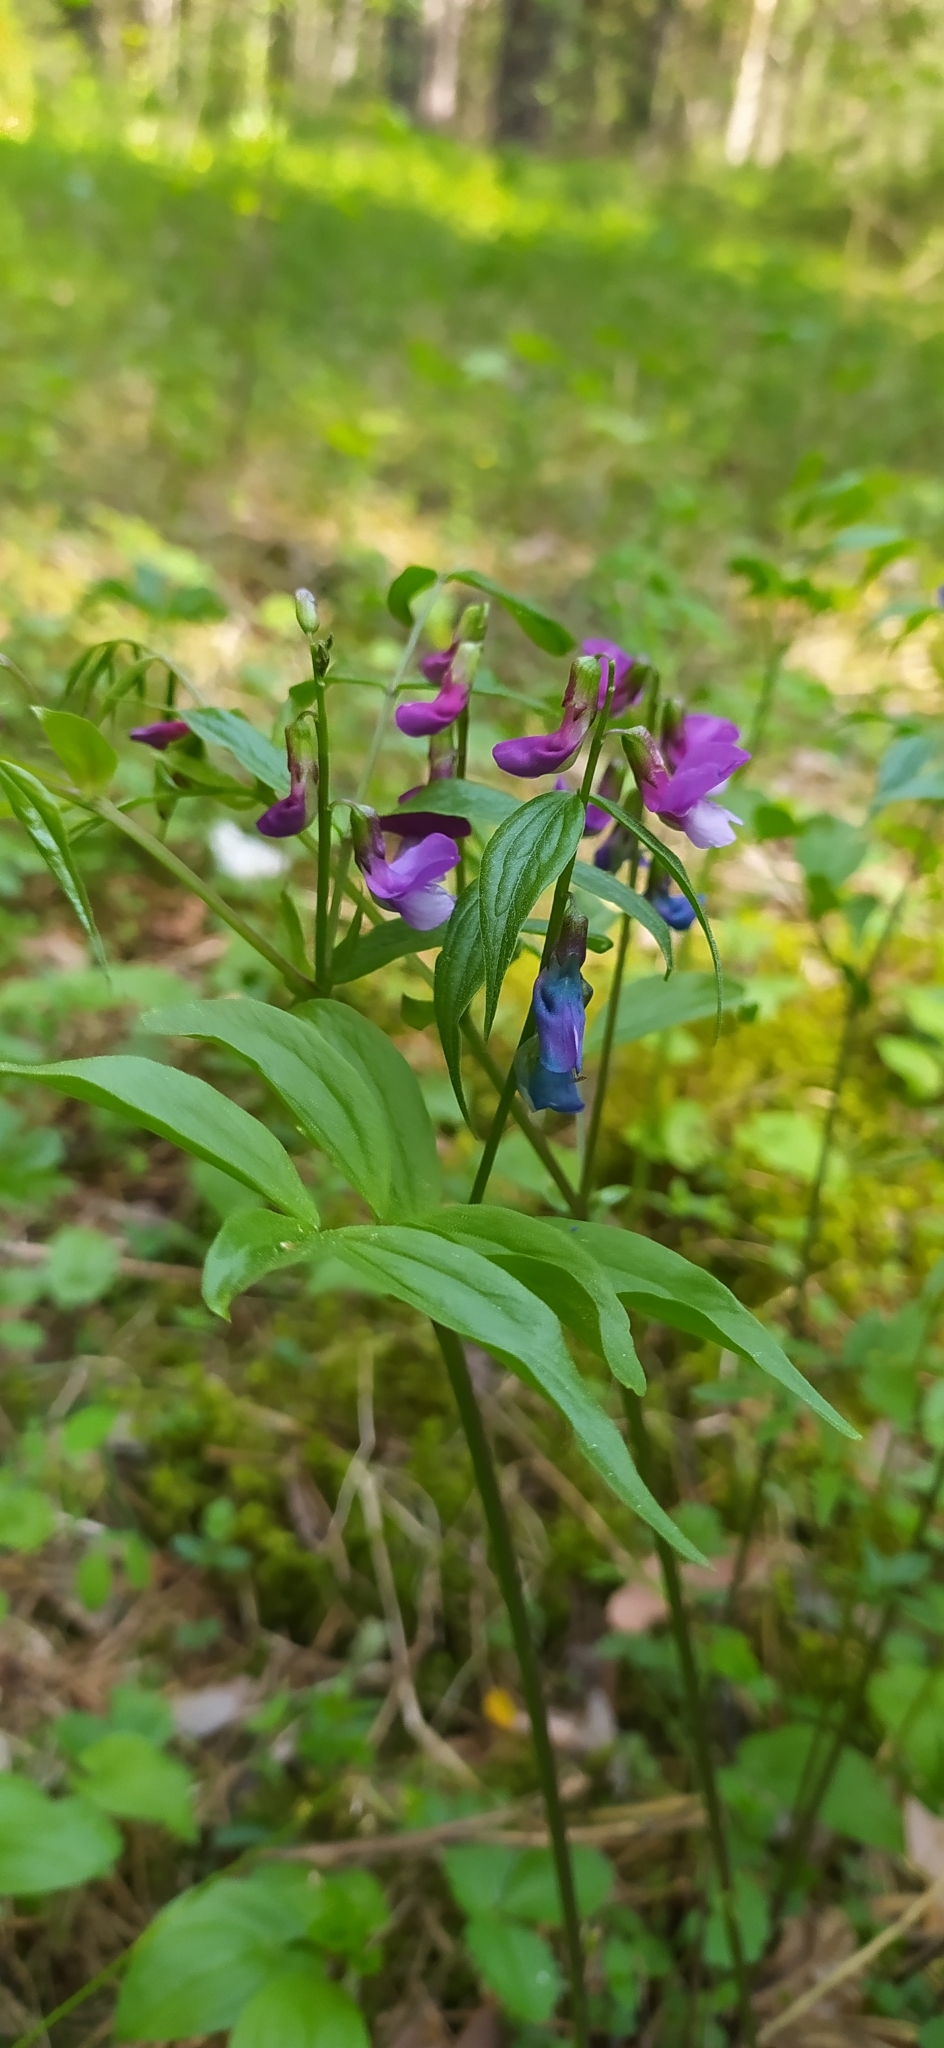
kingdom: Plantae
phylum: Tracheophyta
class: Magnoliopsida
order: Fabales
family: Fabaceae
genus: Lathyrus
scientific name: Lathyrus vernus
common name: Spring pea
